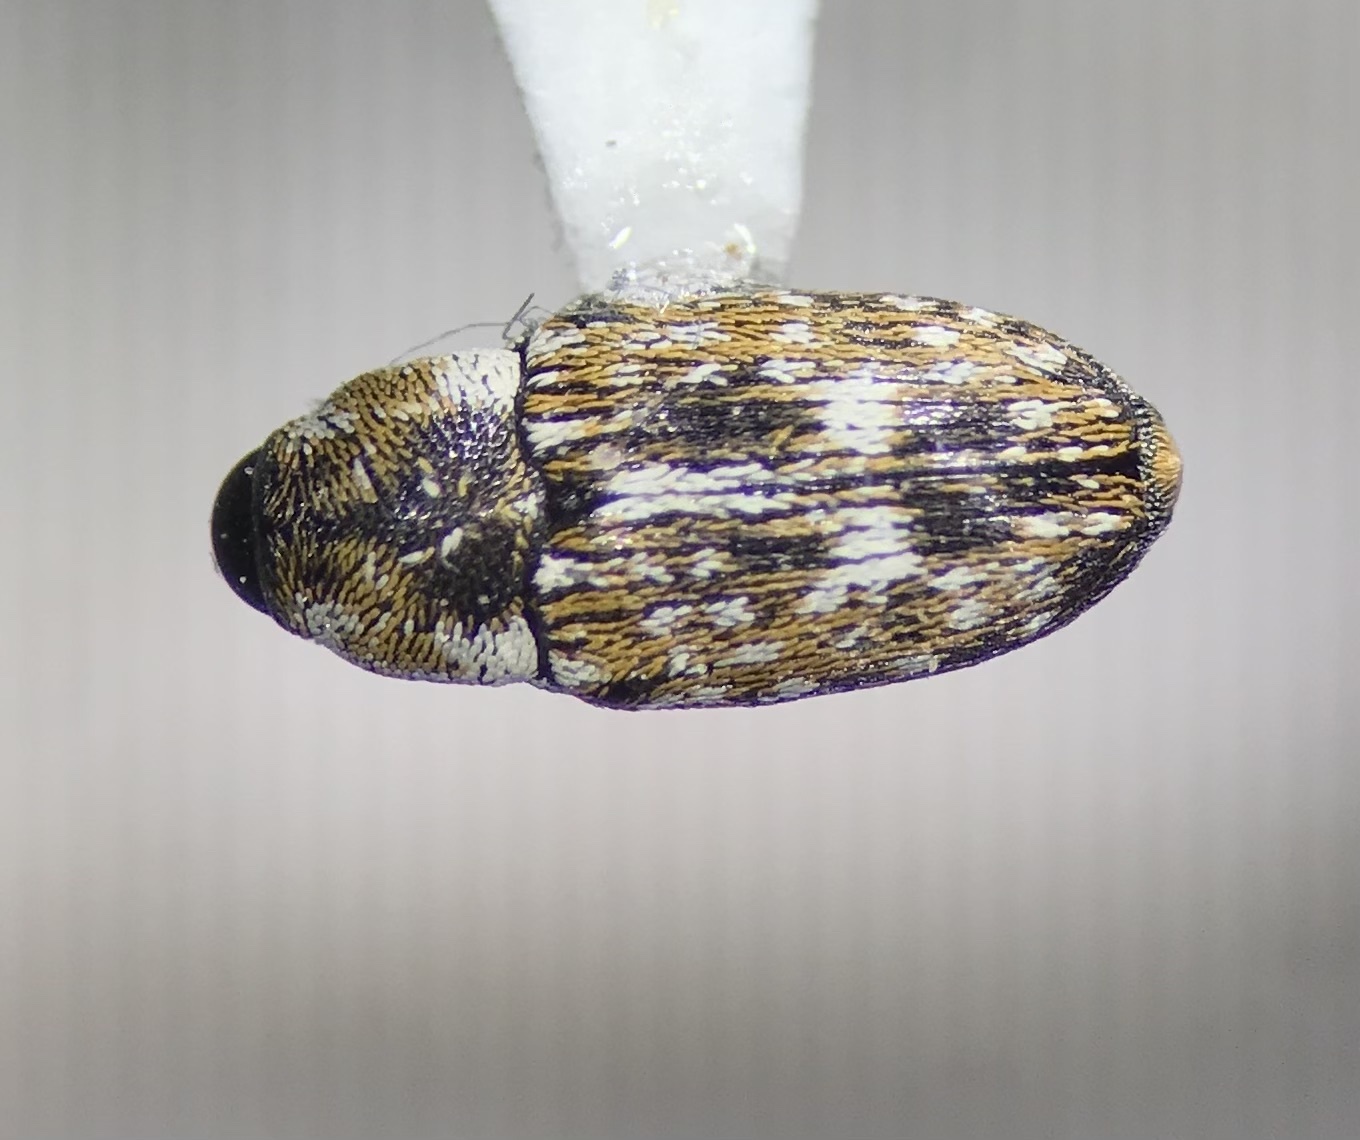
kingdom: Animalia
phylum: Arthropoda
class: Insecta
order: Coleoptera
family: Curculionidae
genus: Cosmobaris
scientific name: Cosmobaris scolopacea
